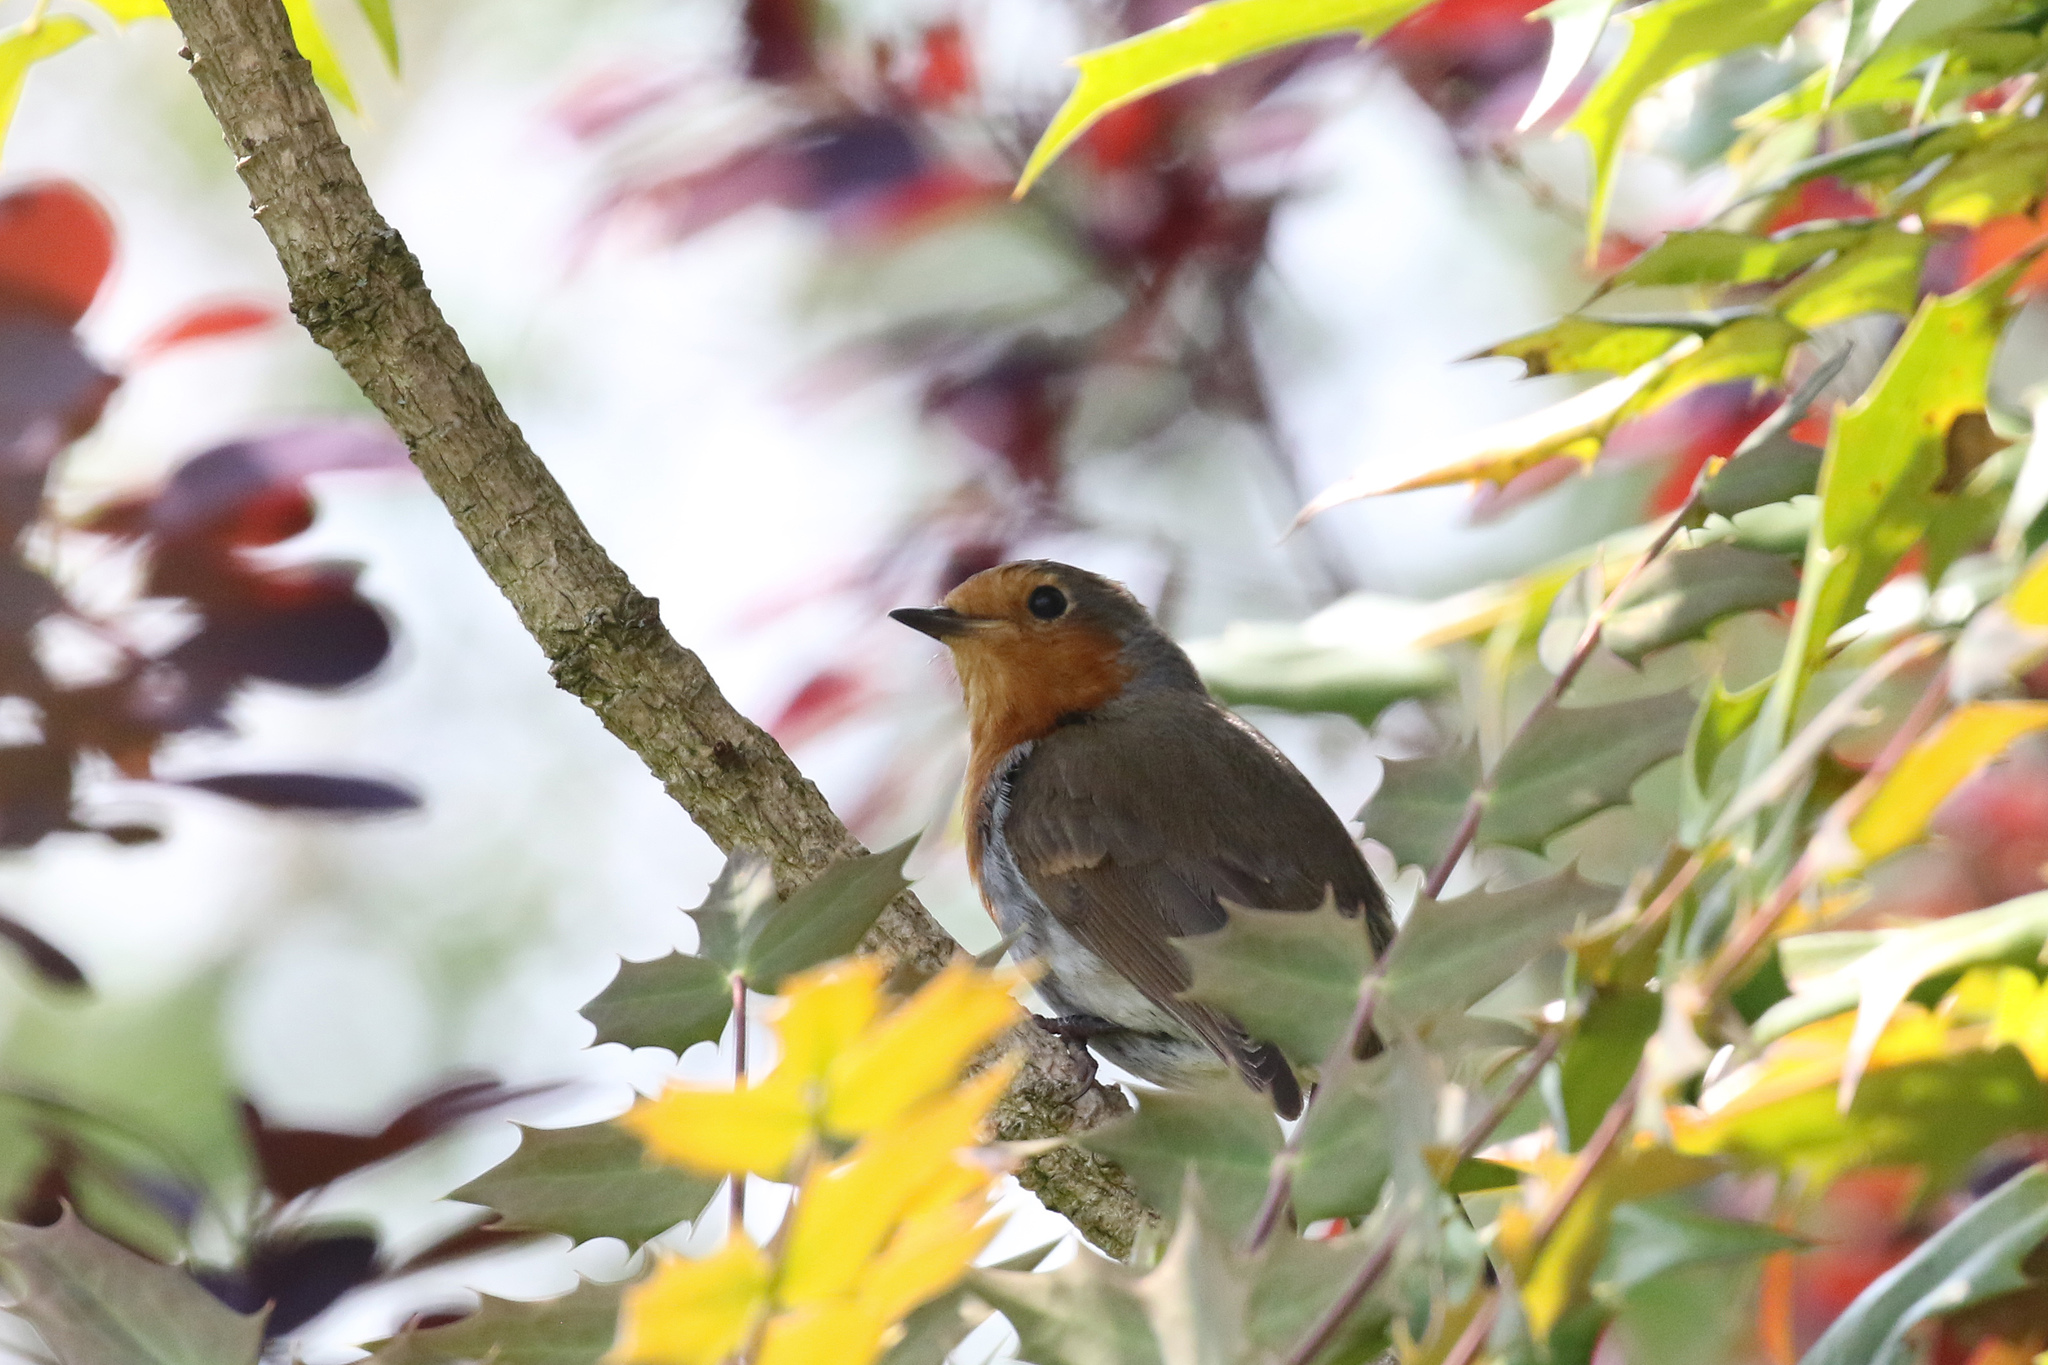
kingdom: Animalia
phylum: Chordata
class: Aves
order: Passeriformes
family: Muscicapidae
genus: Erithacus
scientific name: Erithacus rubecula
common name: European robin
